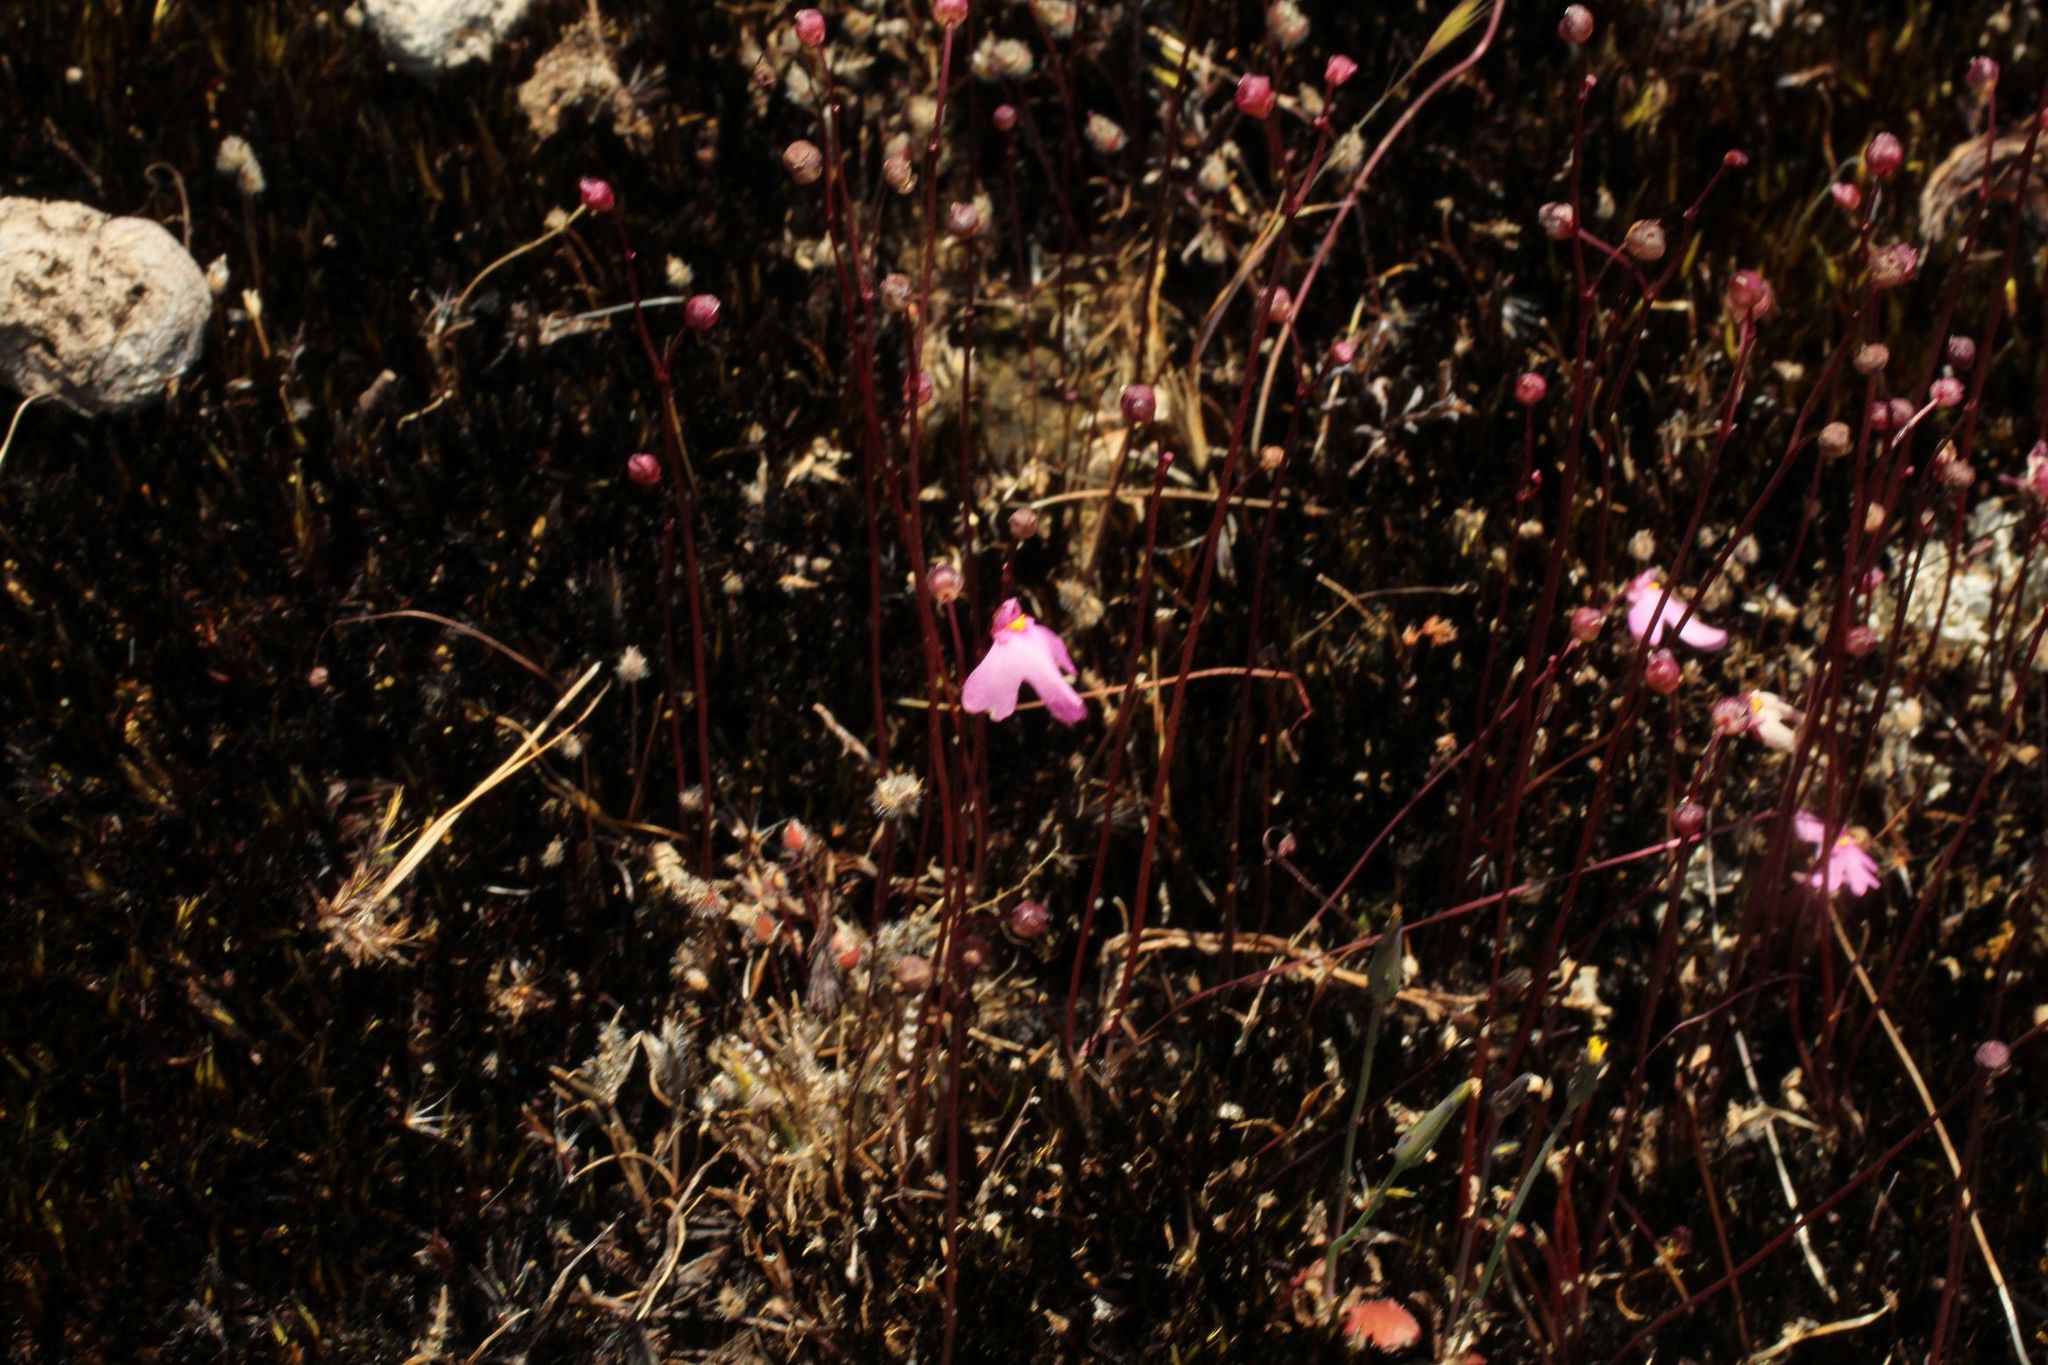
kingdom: Plantae
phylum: Tracheophyta
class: Magnoliopsida
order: Lamiales
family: Lentibulariaceae
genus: Utricularia
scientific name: Utricularia multifida
